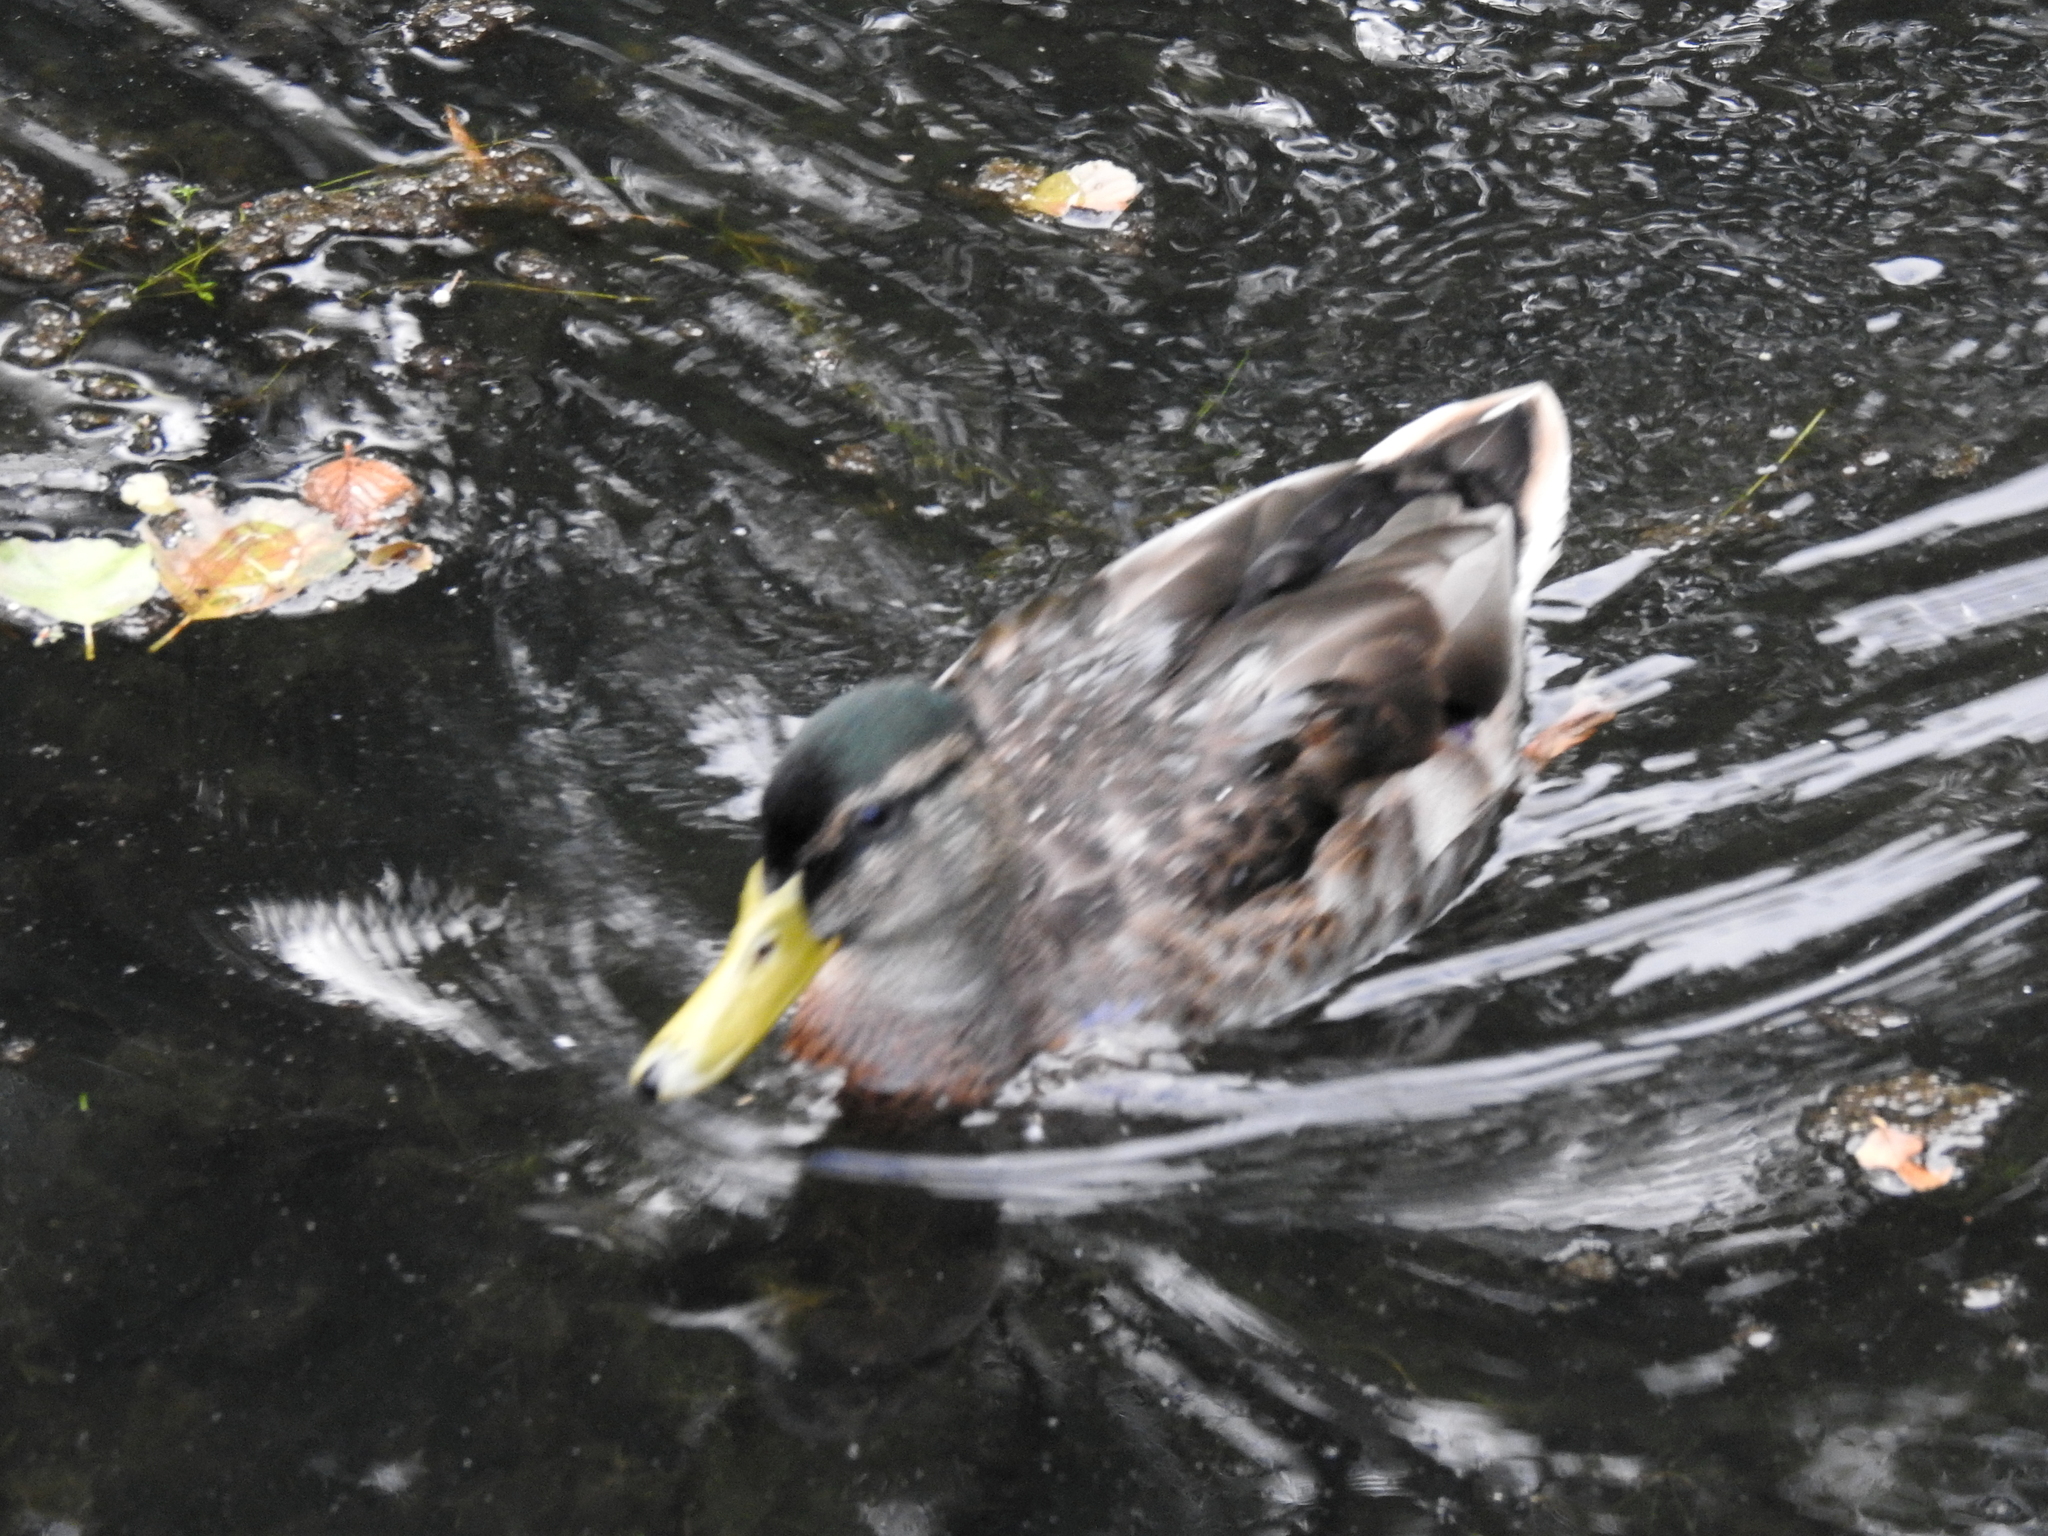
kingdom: Animalia
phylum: Chordata
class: Aves
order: Anseriformes
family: Anatidae
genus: Anas
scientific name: Anas platyrhynchos
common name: Mallard
